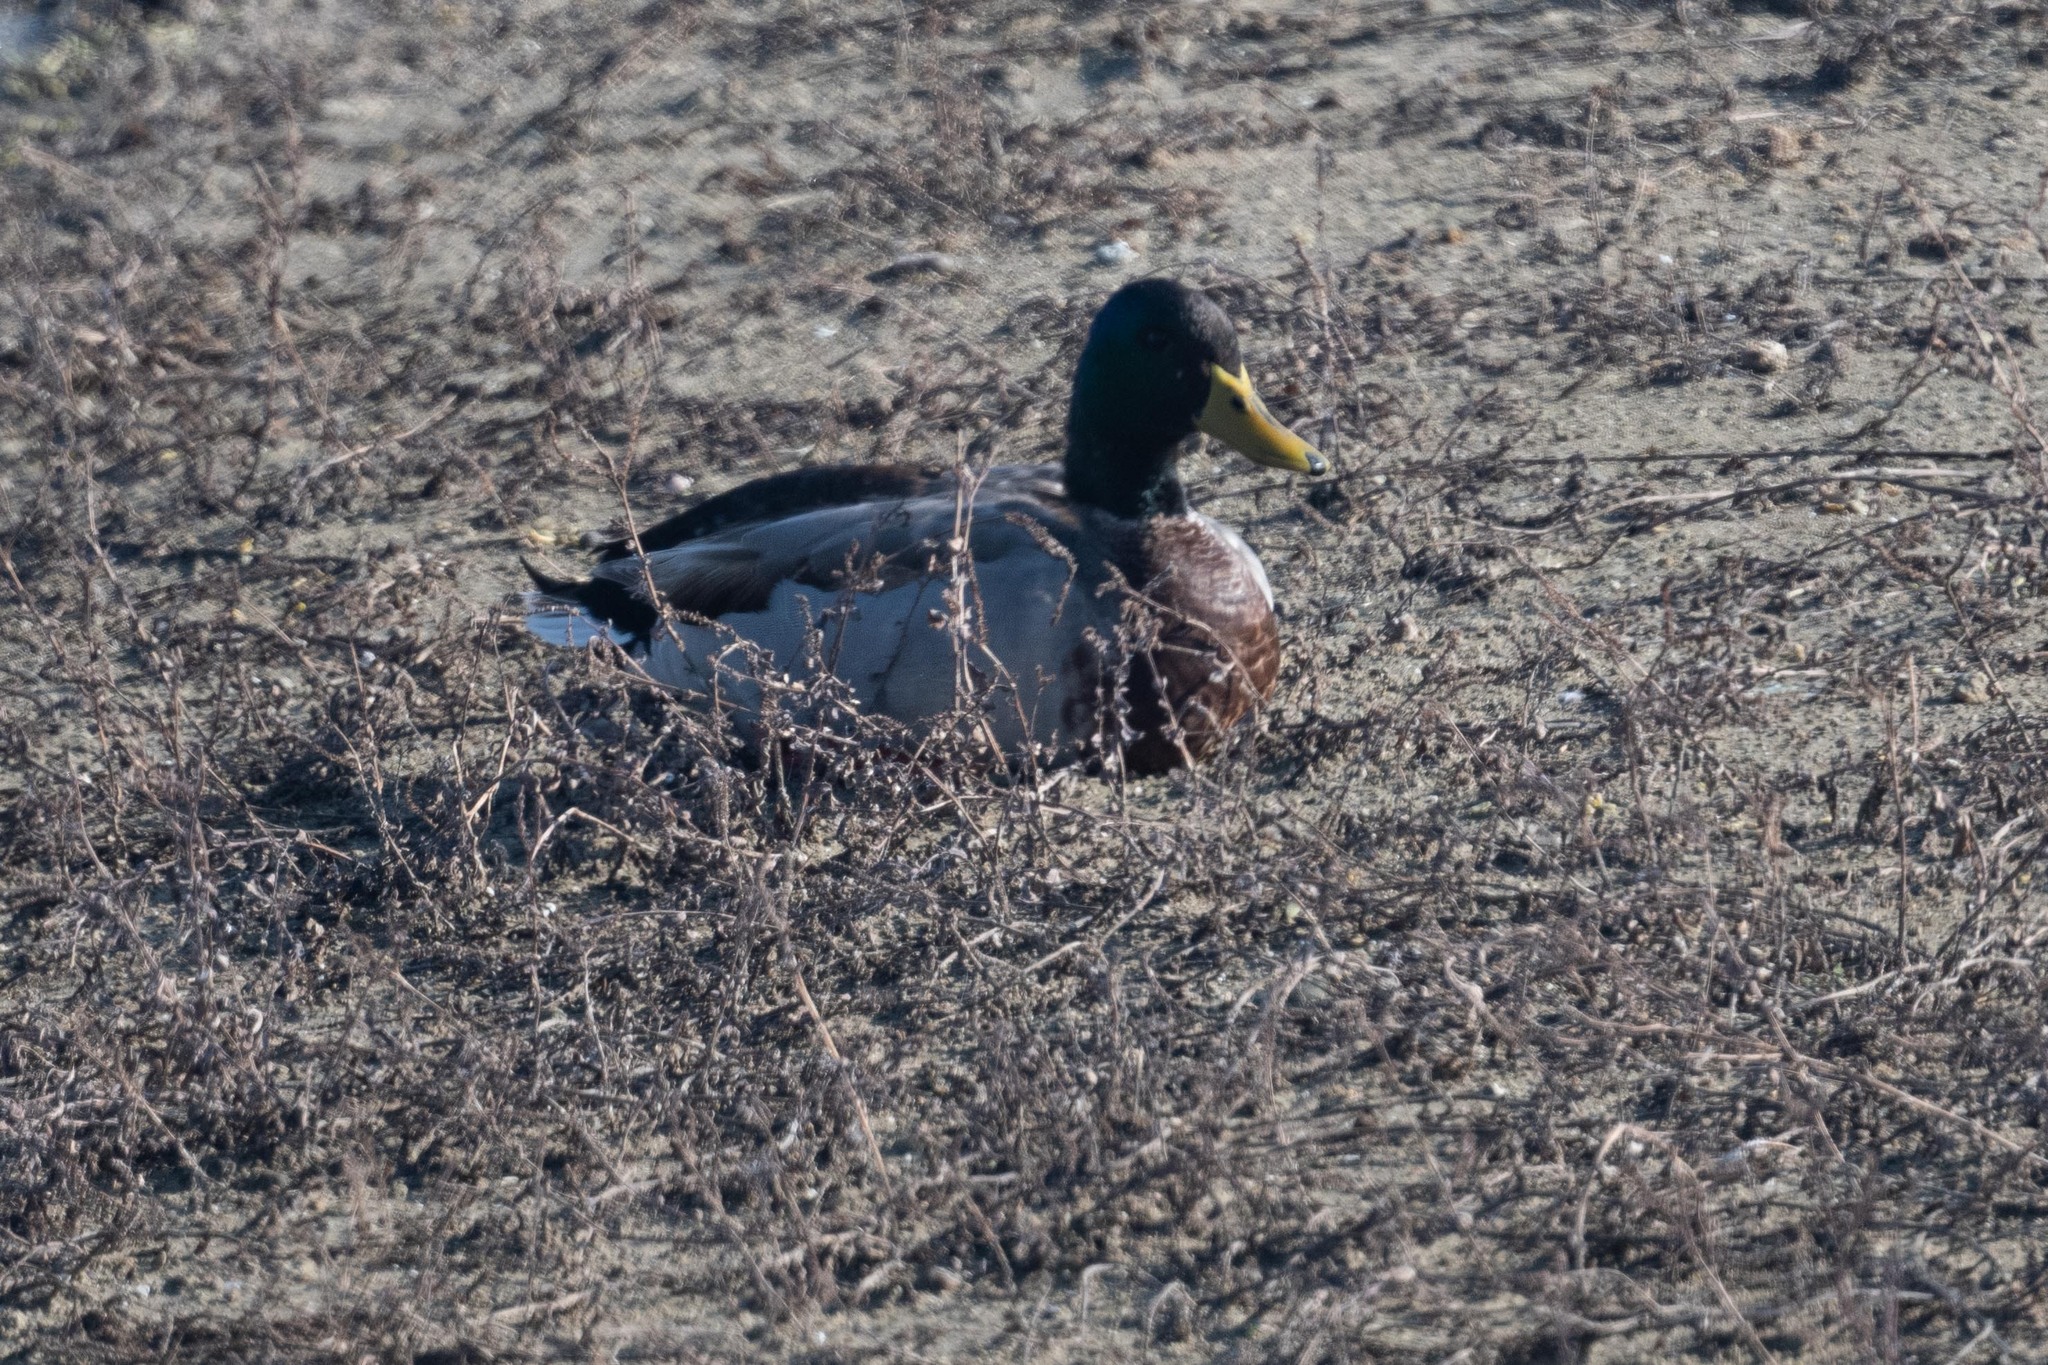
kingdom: Animalia
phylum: Chordata
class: Aves
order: Anseriformes
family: Anatidae
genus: Anas
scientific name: Anas platyrhynchos
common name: Mallard
